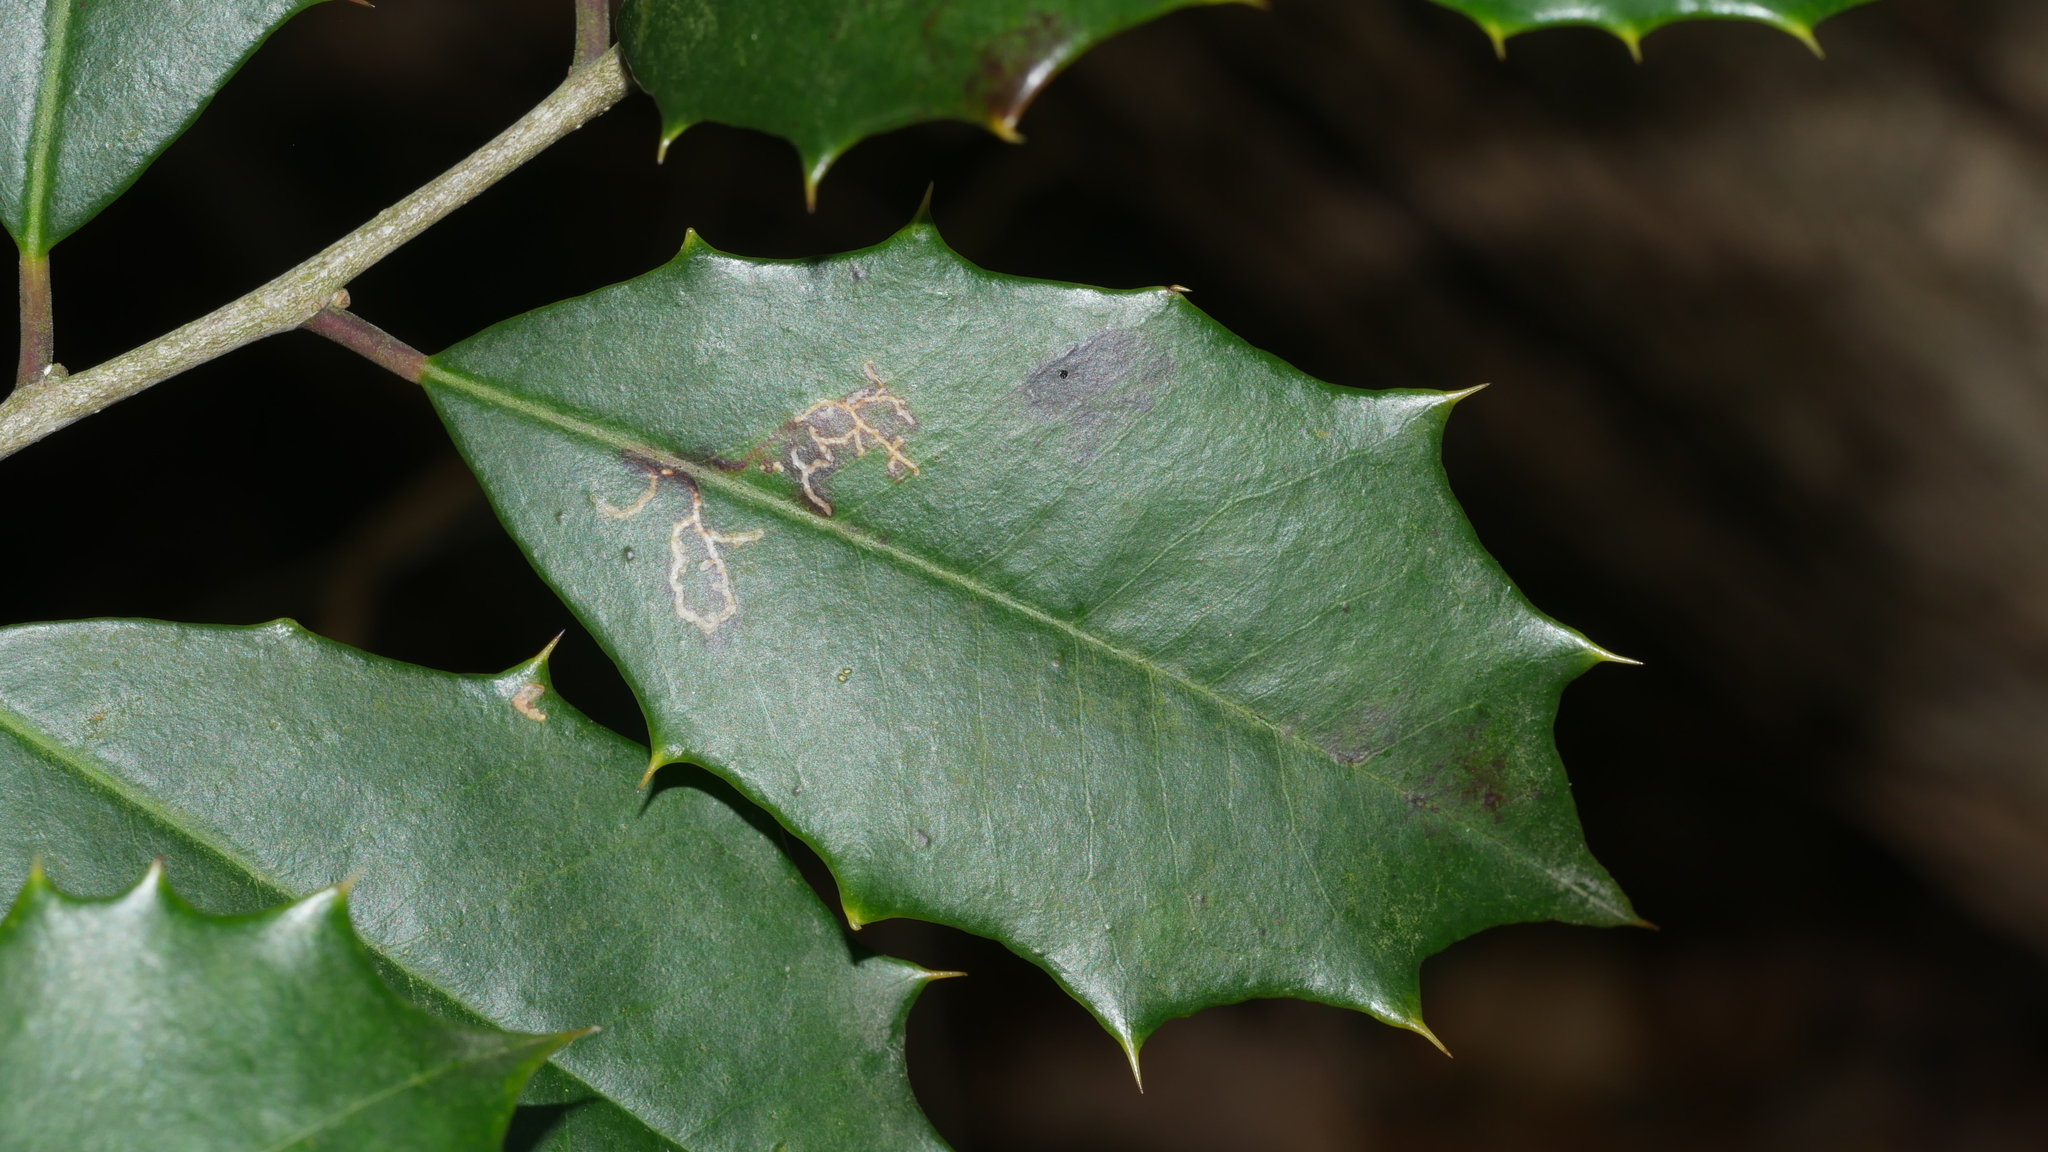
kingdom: Animalia
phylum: Arthropoda
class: Insecta
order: Lepidoptera
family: Tortricidae
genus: Rhopobota
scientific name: Rhopobota
